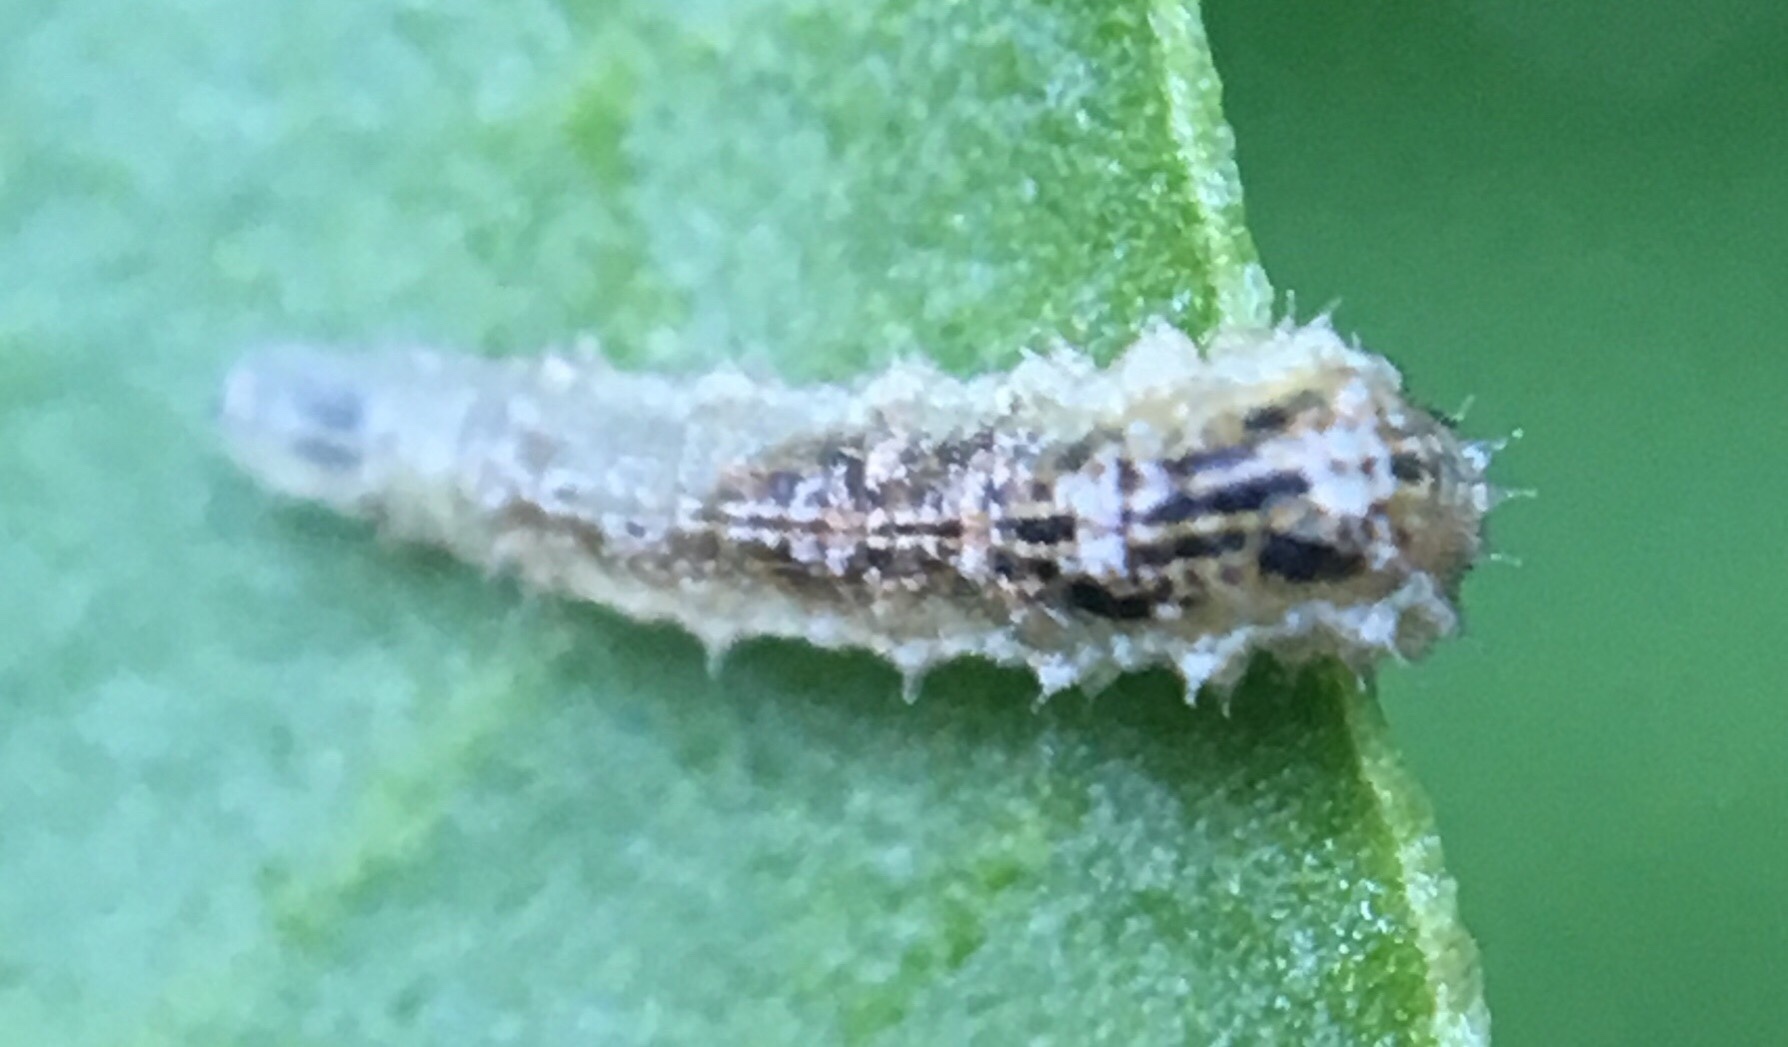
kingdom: Animalia
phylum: Arthropoda
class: Insecta
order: Diptera
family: Syrphidae
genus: Eupeodes
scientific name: Eupeodes americanus
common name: Long-tailed aphideater
